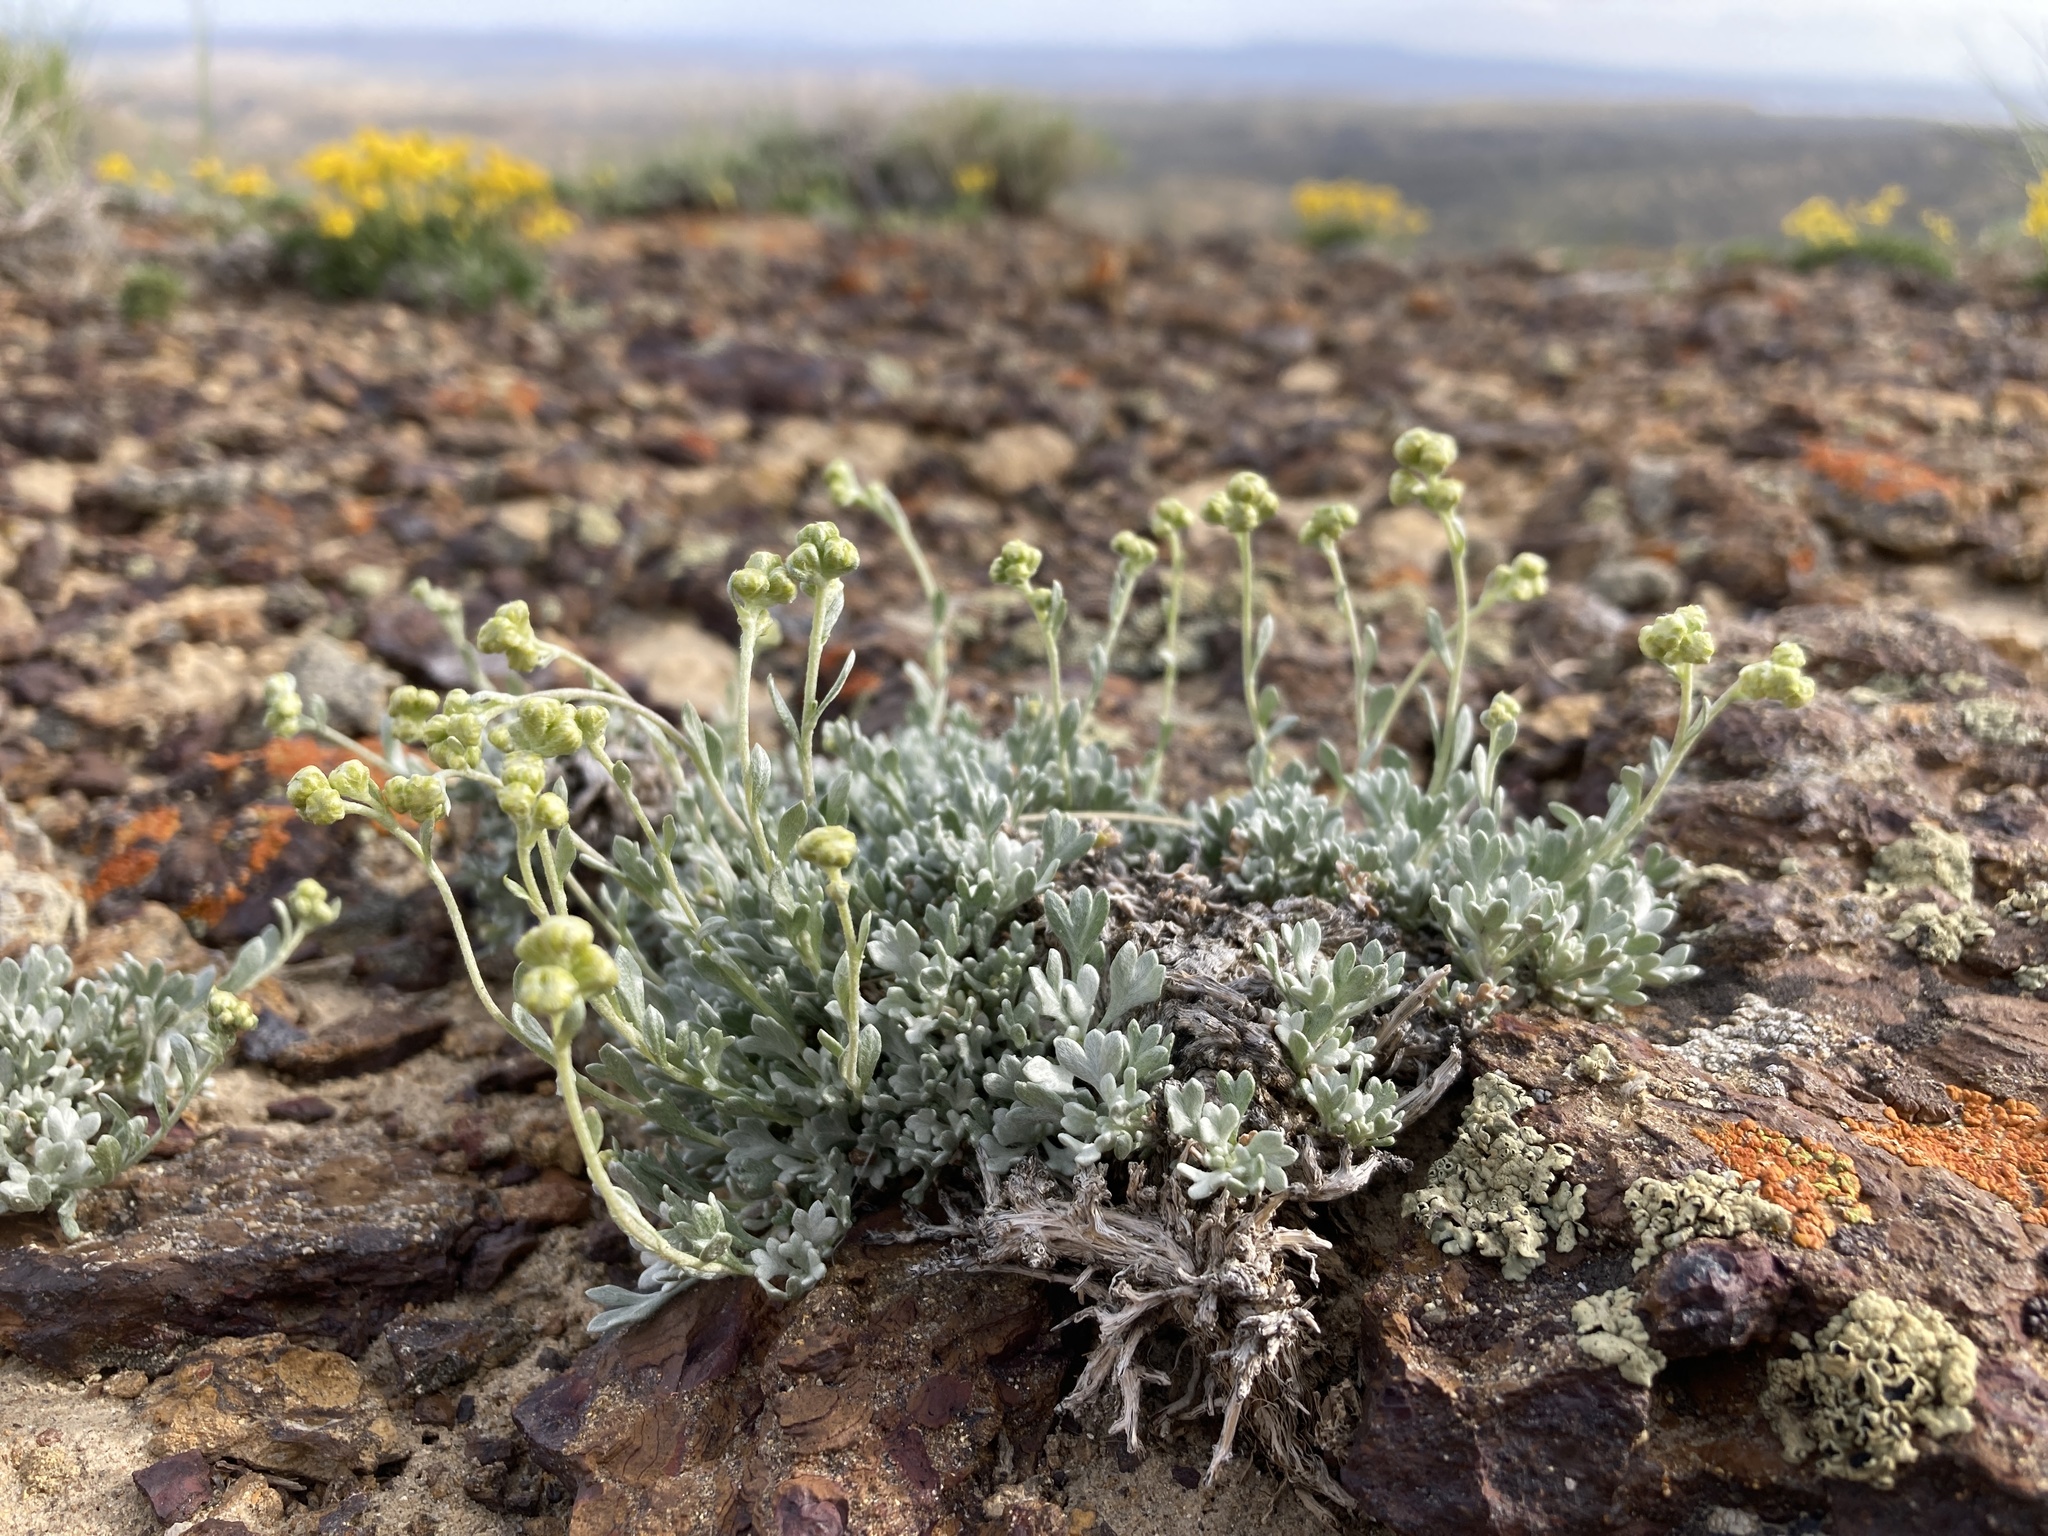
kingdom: Plantae
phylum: Tracheophyta
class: Magnoliopsida
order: Asterales
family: Asteraceae
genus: Artemisia
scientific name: Artemisia nuttallii
